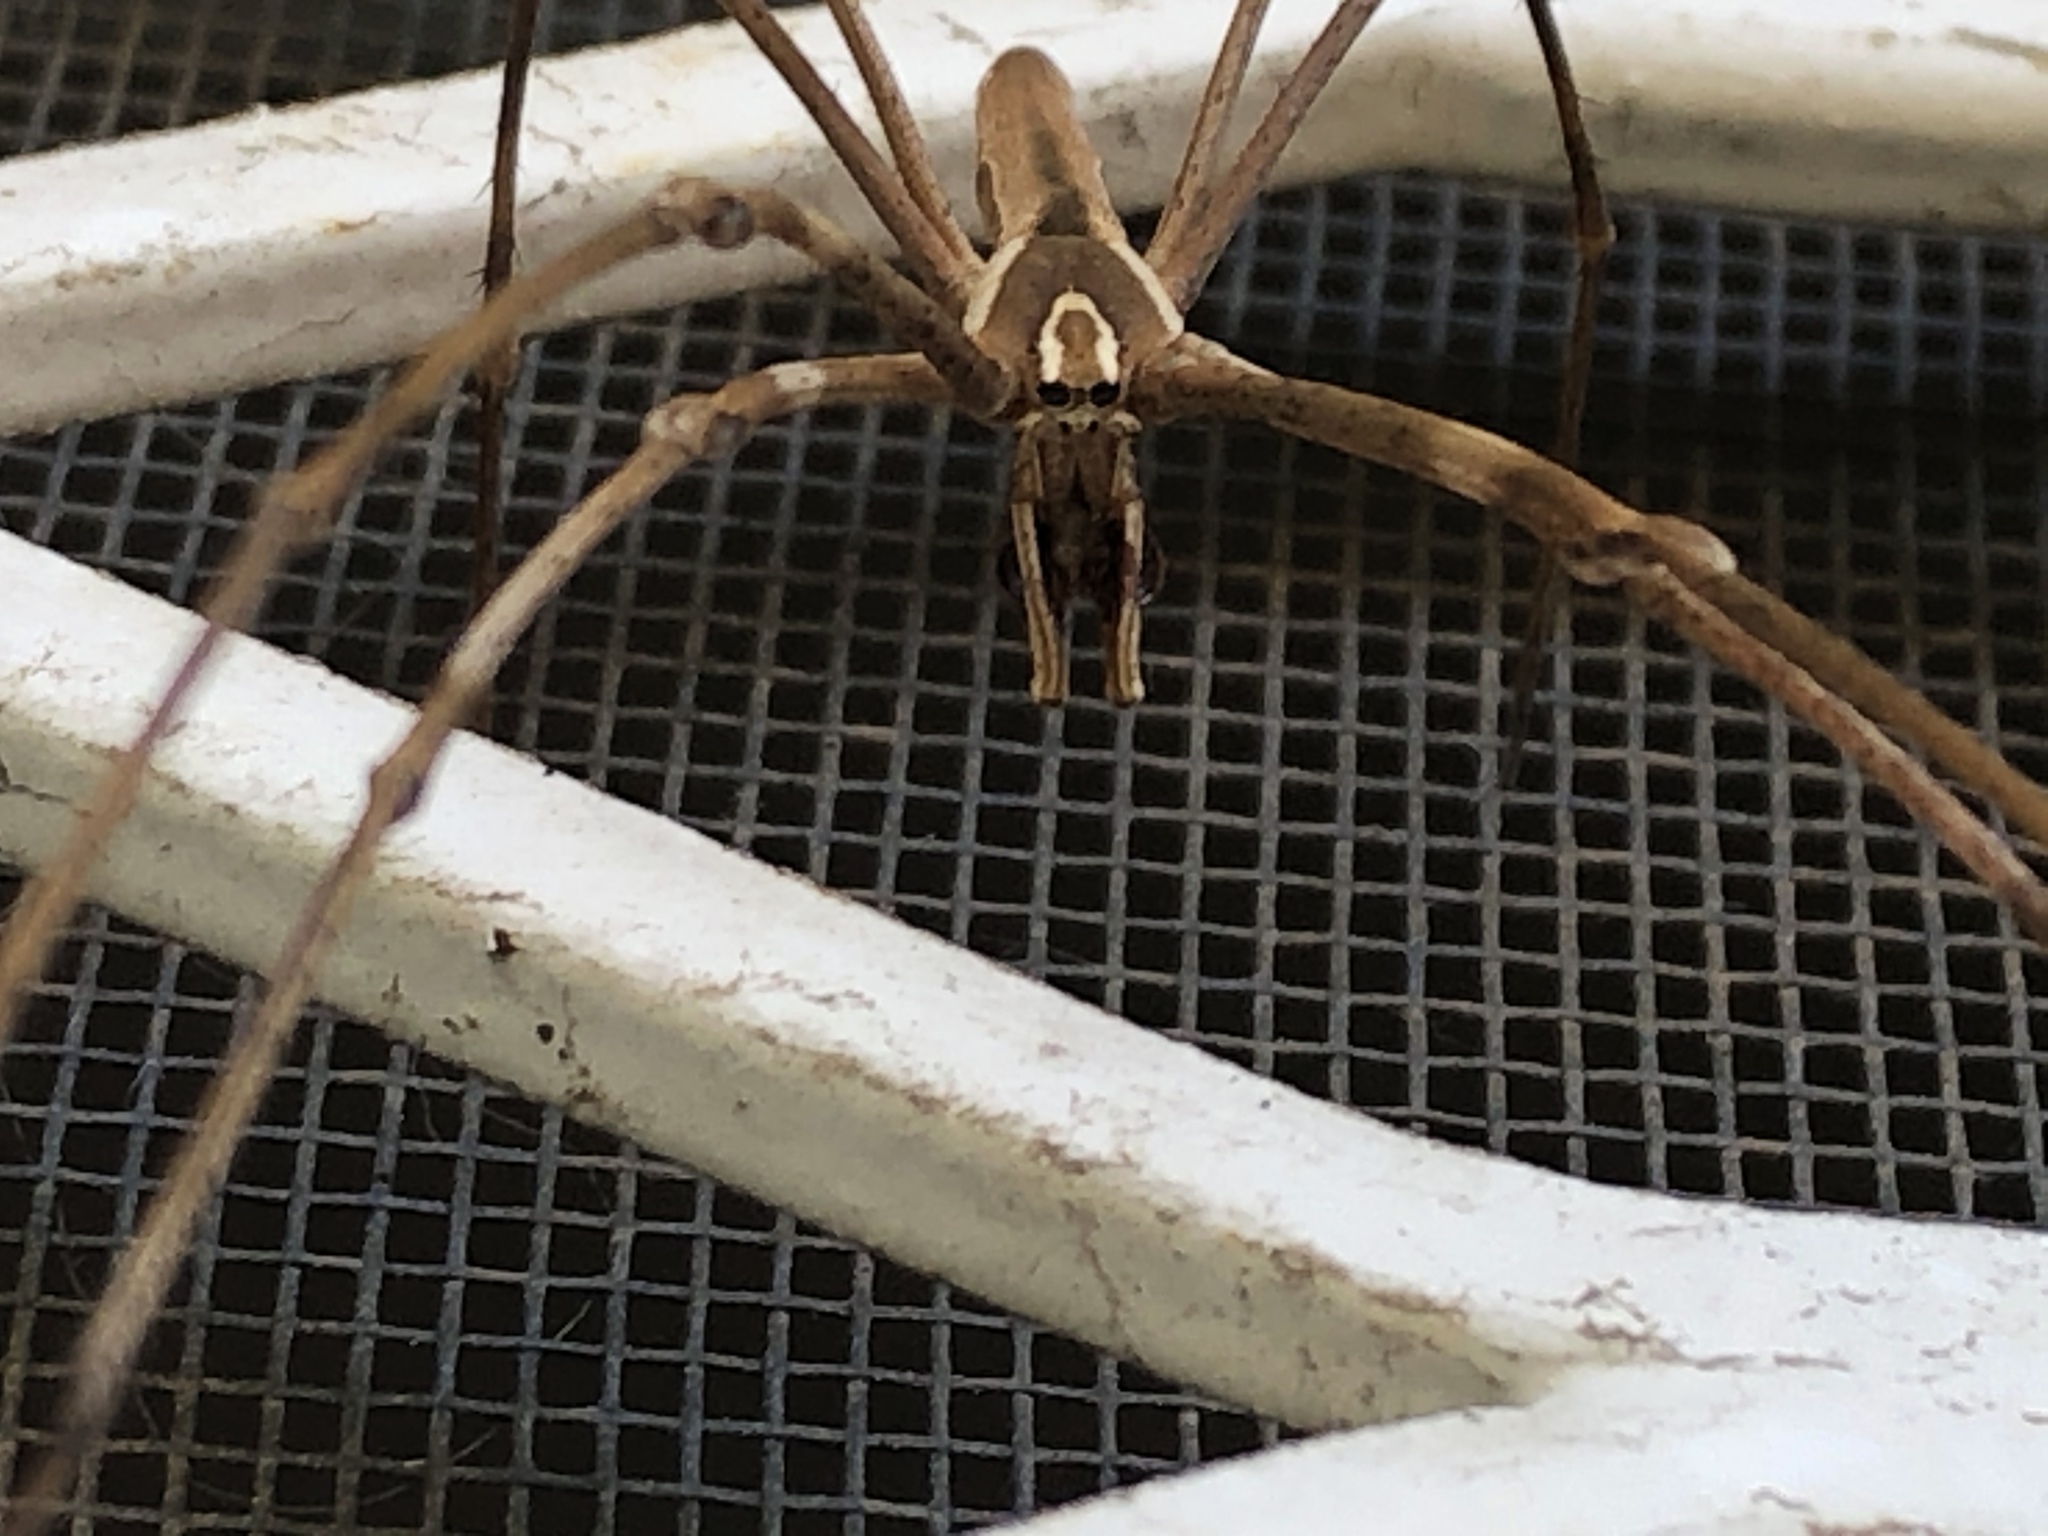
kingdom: Animalia
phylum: Arthropoda
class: Arachnida
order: Araneae
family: Deinopidae
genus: Deinopis
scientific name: Deinopis subrufa
